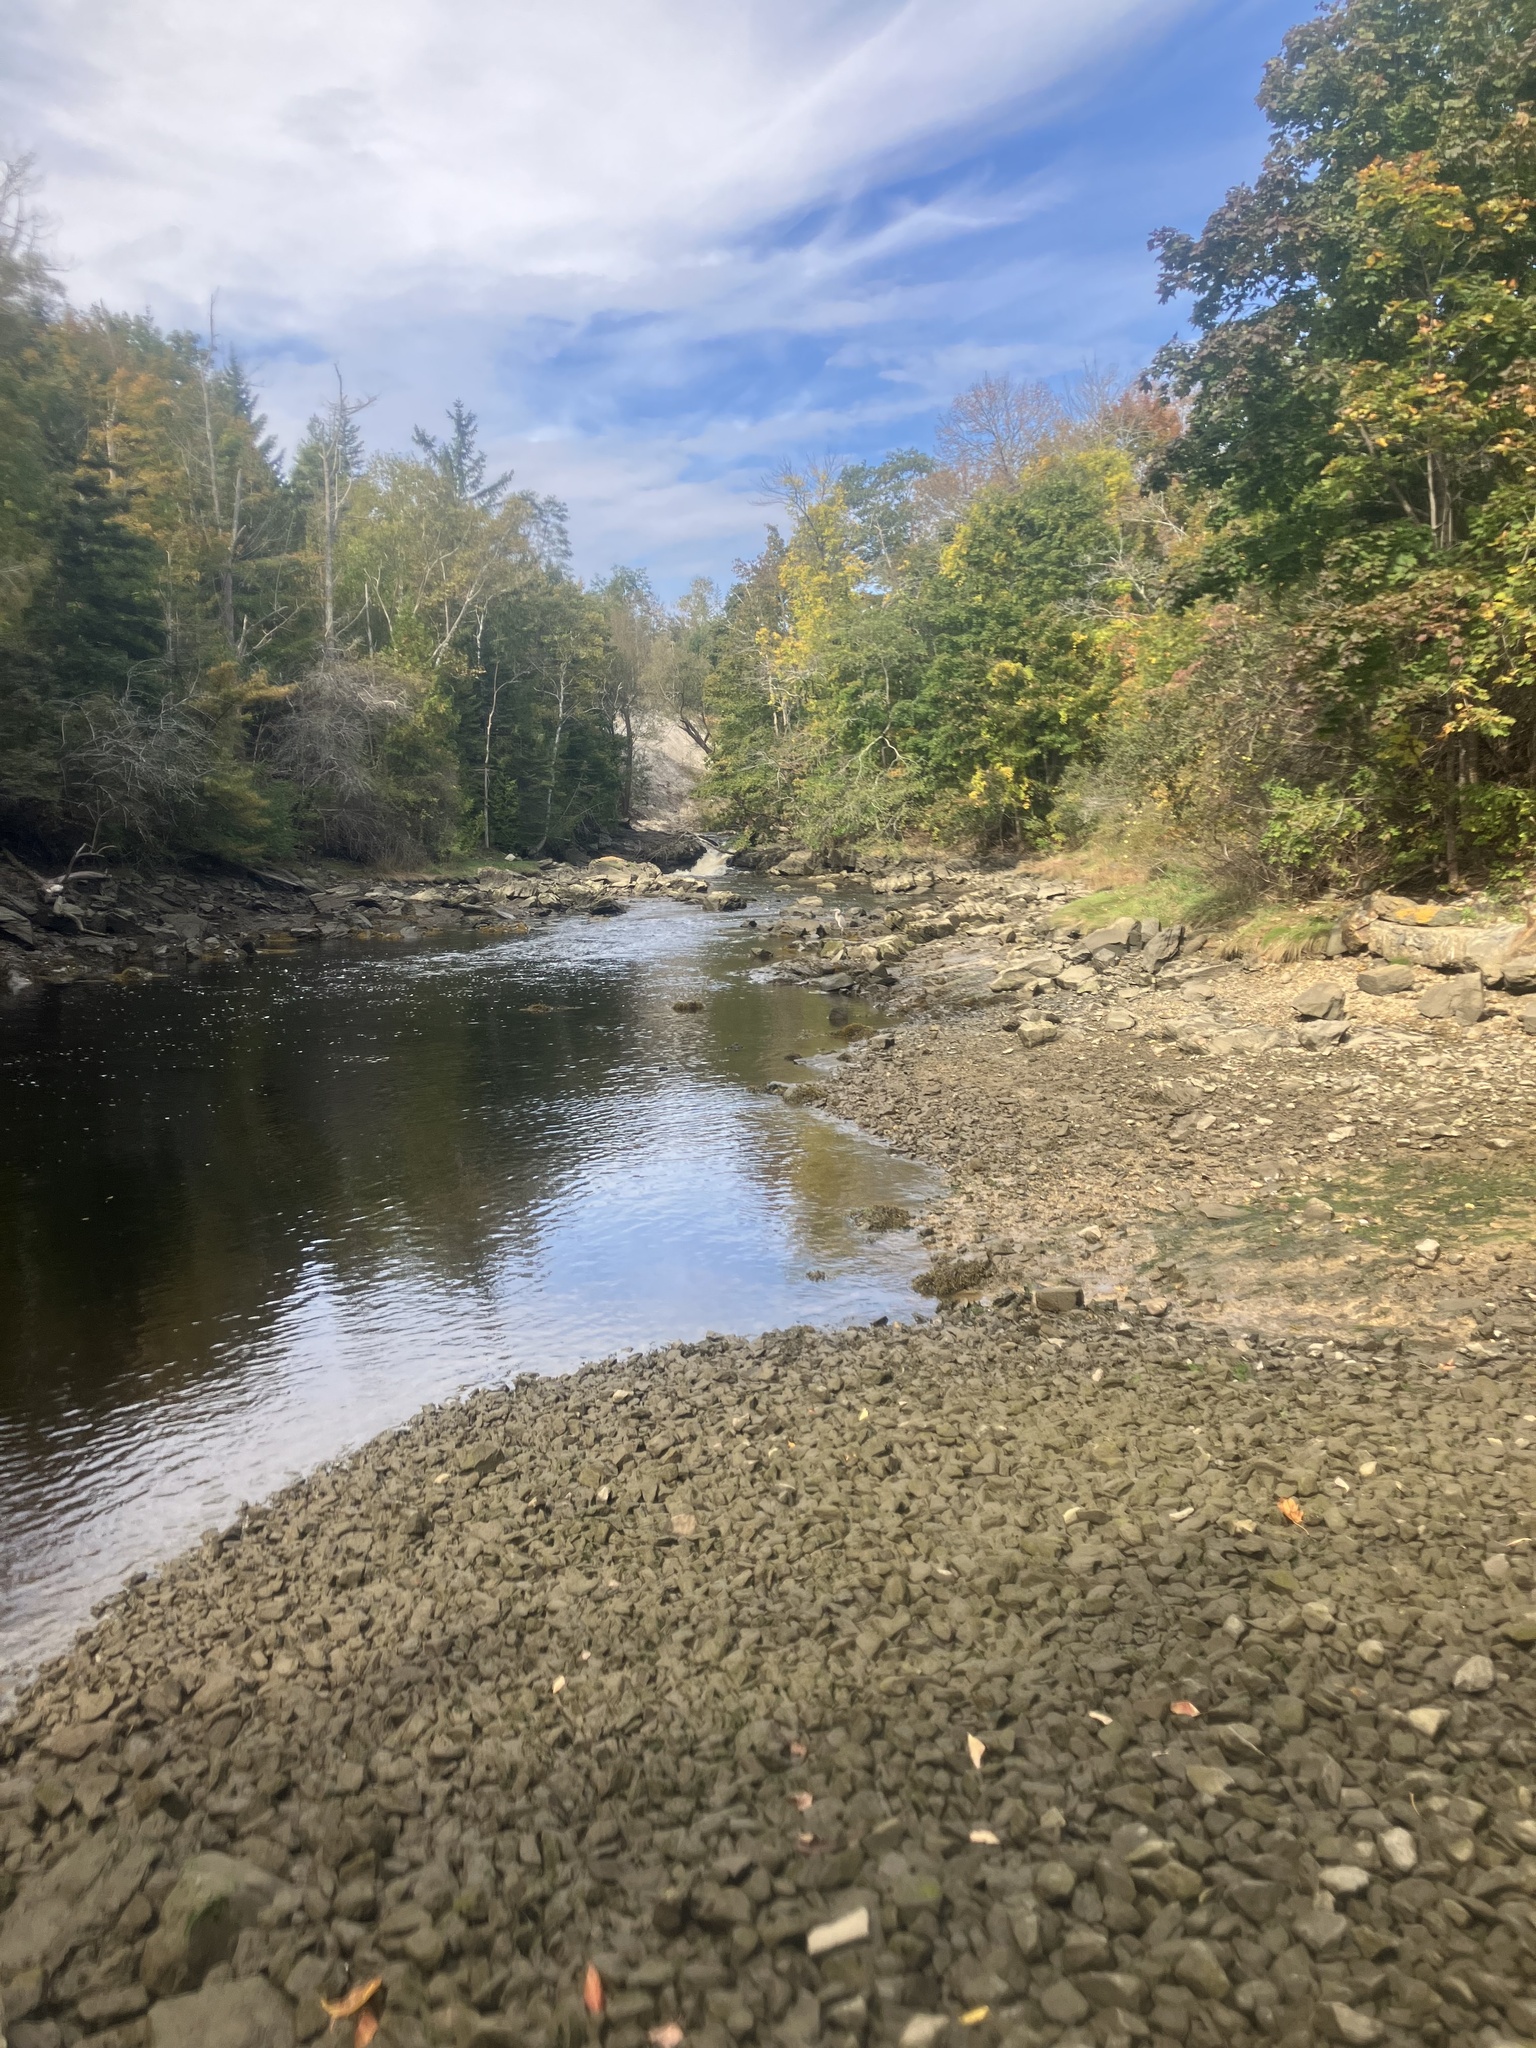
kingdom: Animalia
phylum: Chordata
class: Aves
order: Pelecaniformes
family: Ardeidae
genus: Ardea
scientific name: Ardea herodias
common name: Great blue heron
